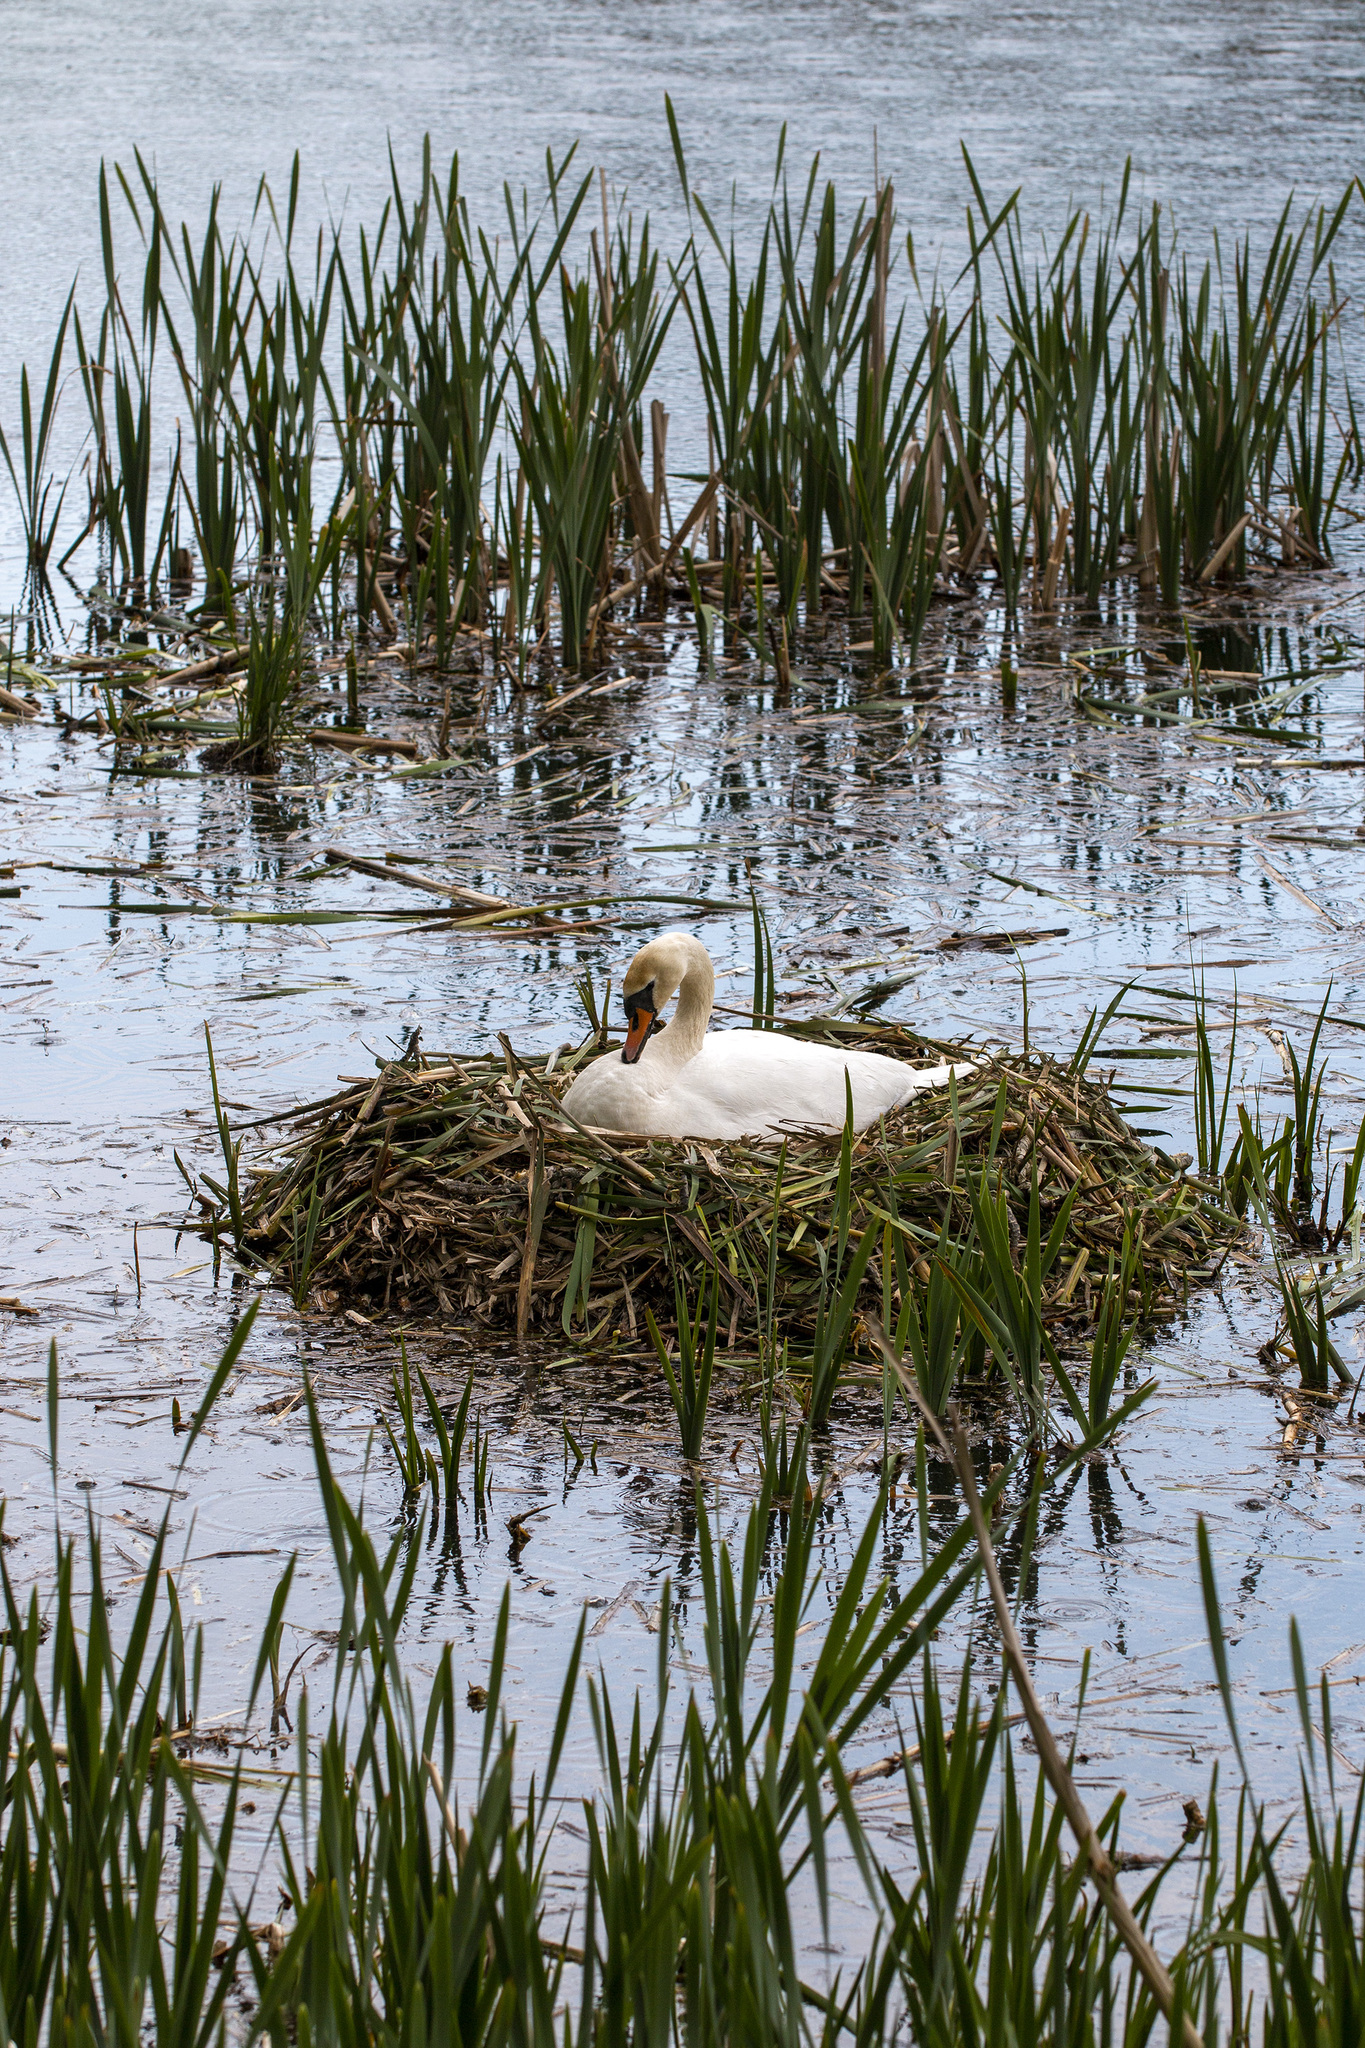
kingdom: Animalia
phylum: Chordata
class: Aves
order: Anseriformes
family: Anatidae
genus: Cygnus
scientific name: Cygnus olor
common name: Mute swan
